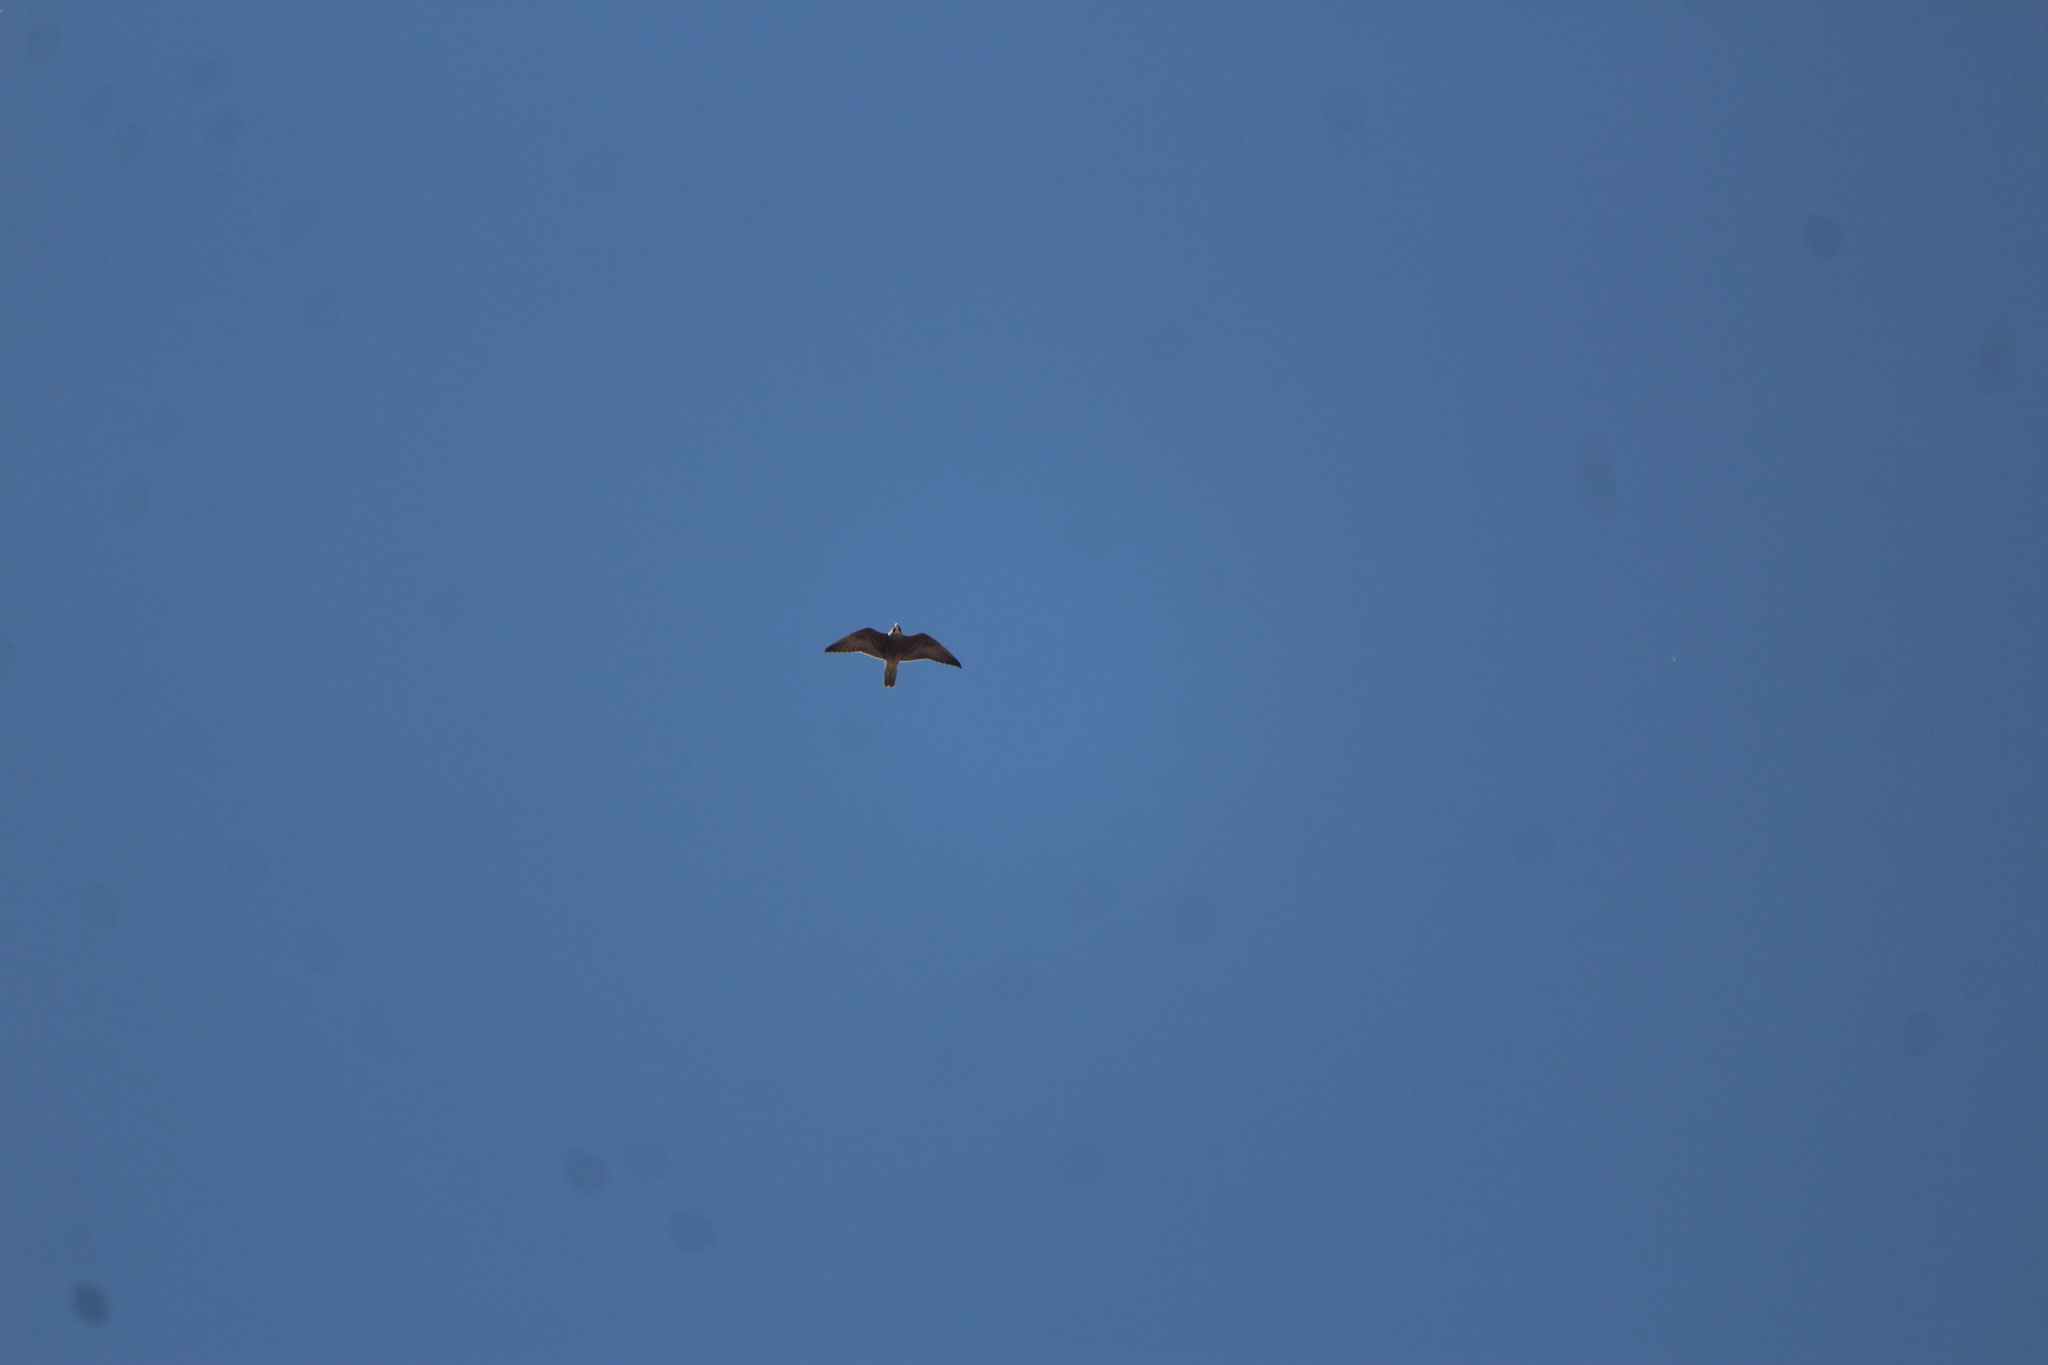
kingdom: Animalia
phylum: Chordata
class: Aves
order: Falconiformes
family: Falconidae
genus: Falco
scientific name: Falco peregrinus
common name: Peregrine falcon
